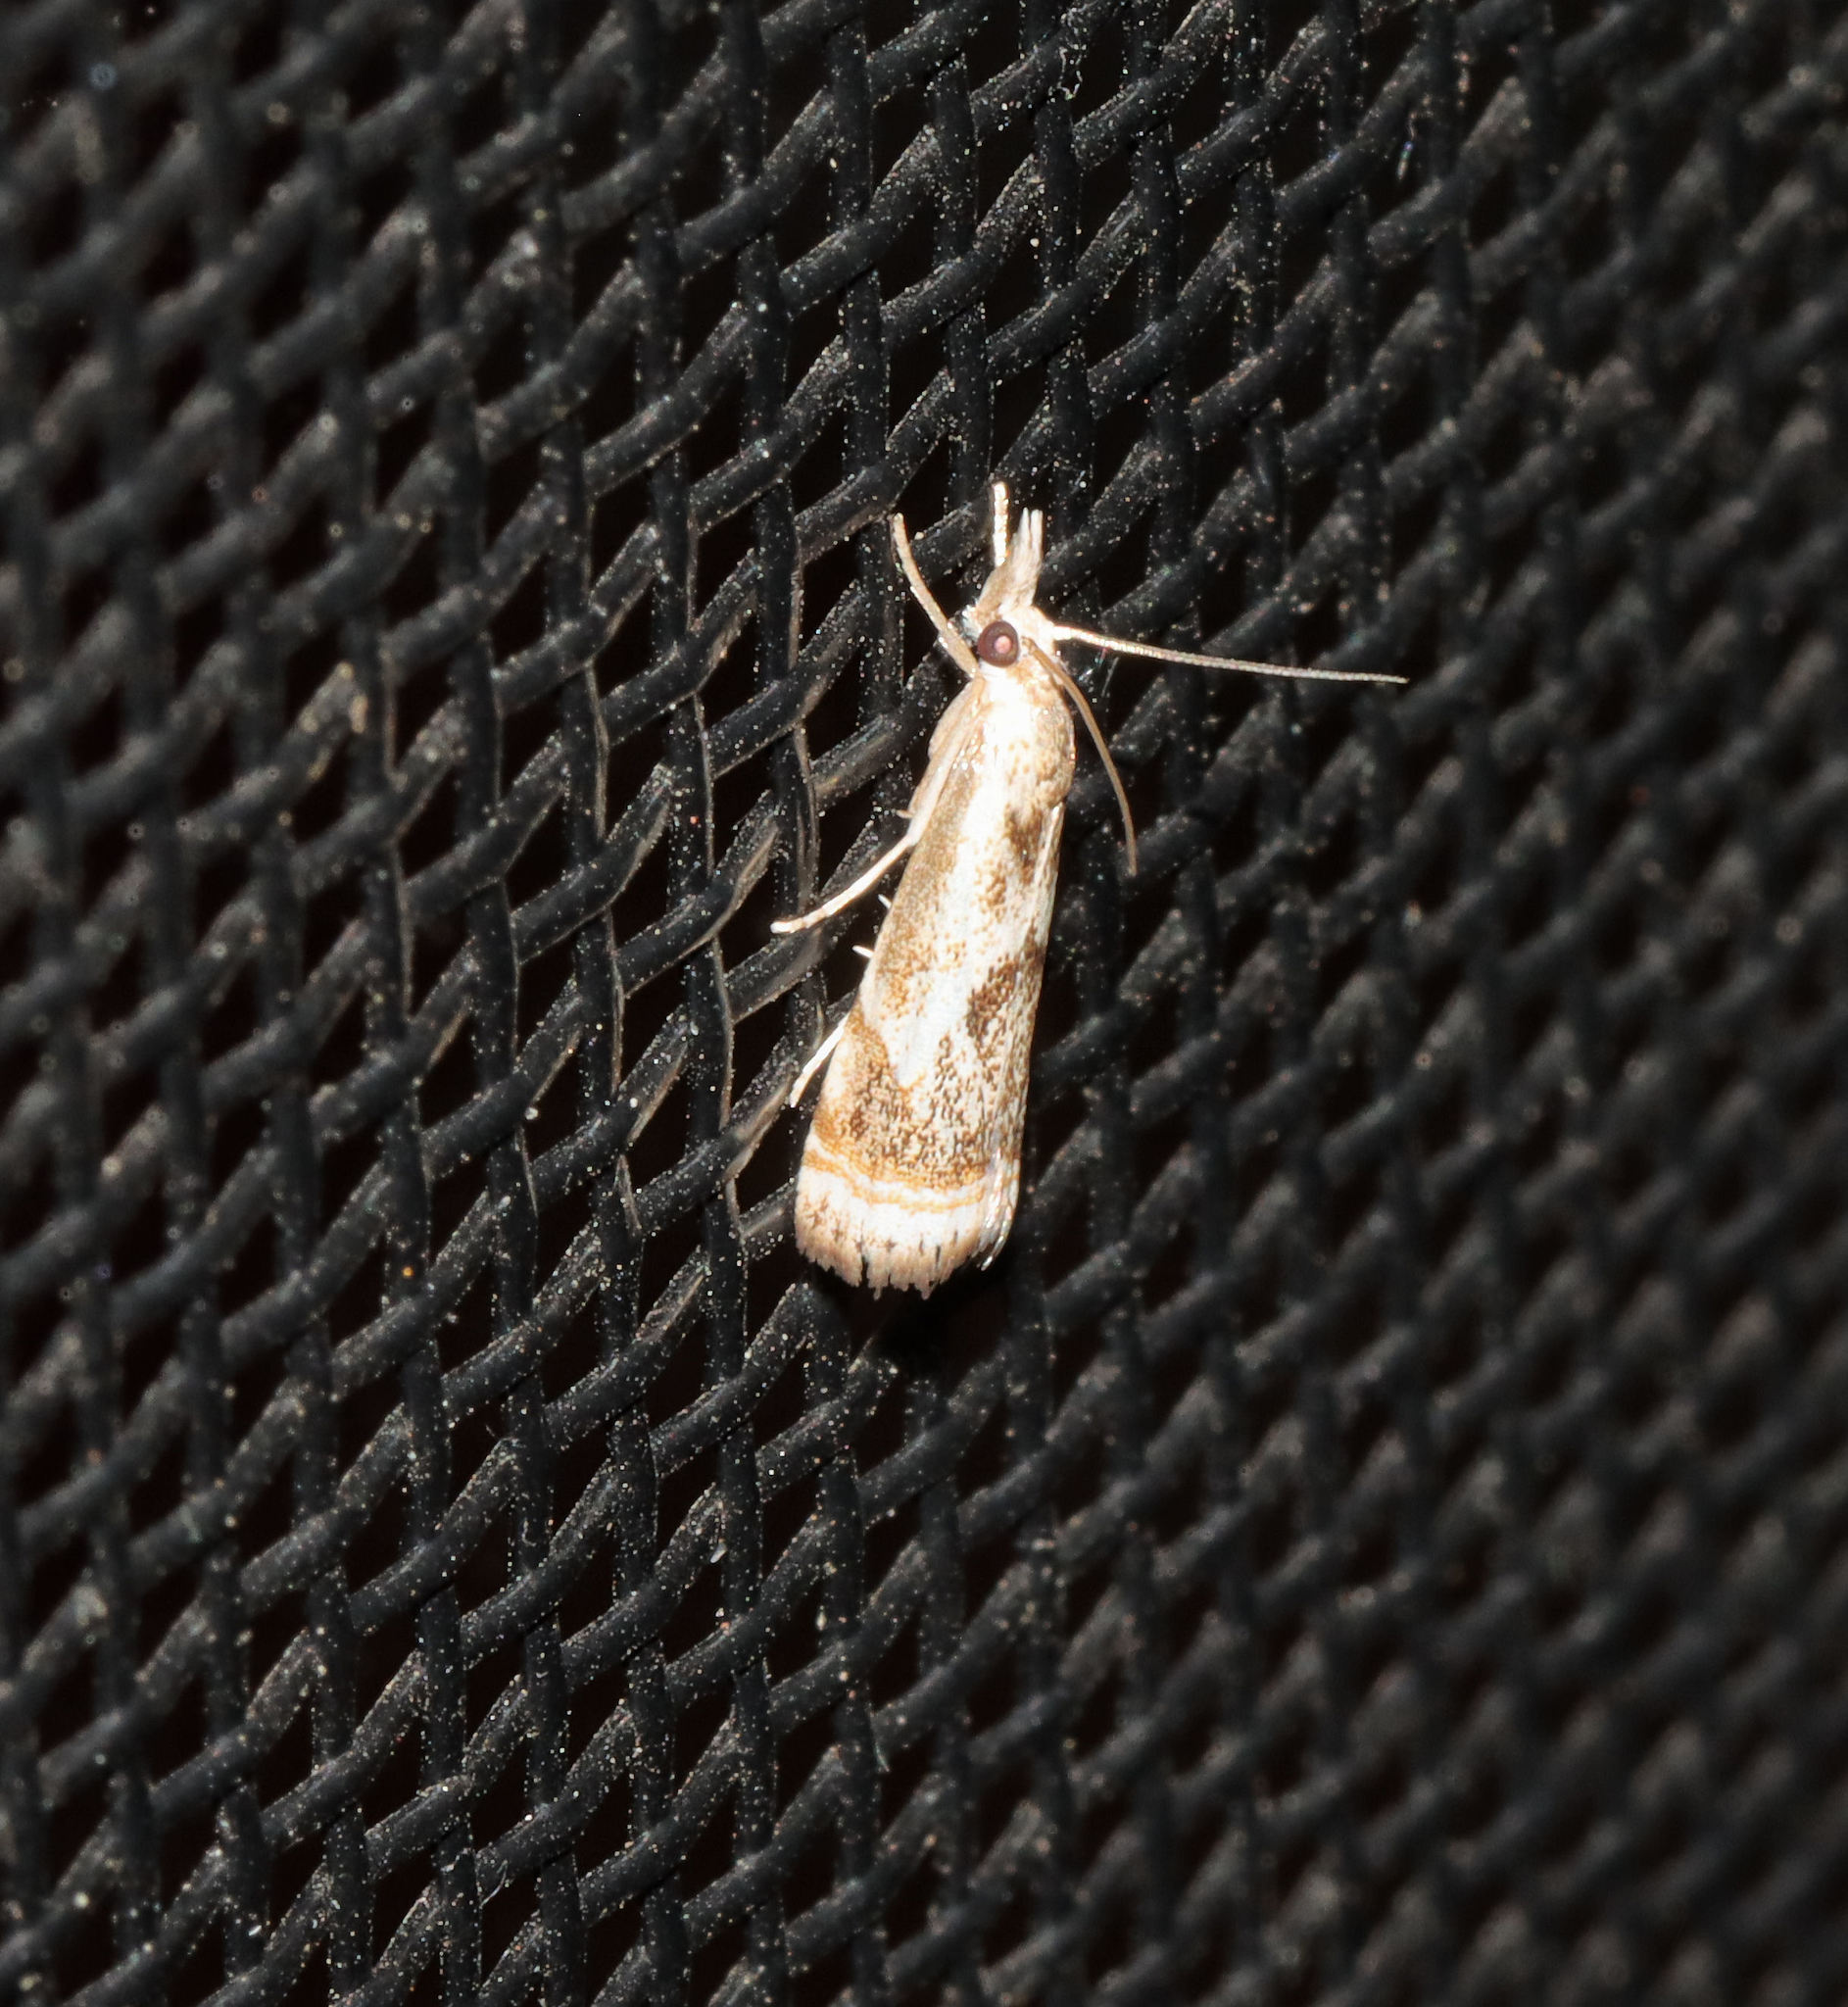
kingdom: Animalia
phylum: Arthropoda
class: Insecta
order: Lepidoptera
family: Crambidae
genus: Microcrambus
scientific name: Microcrambus elegans
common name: Elegant grass-veneer
